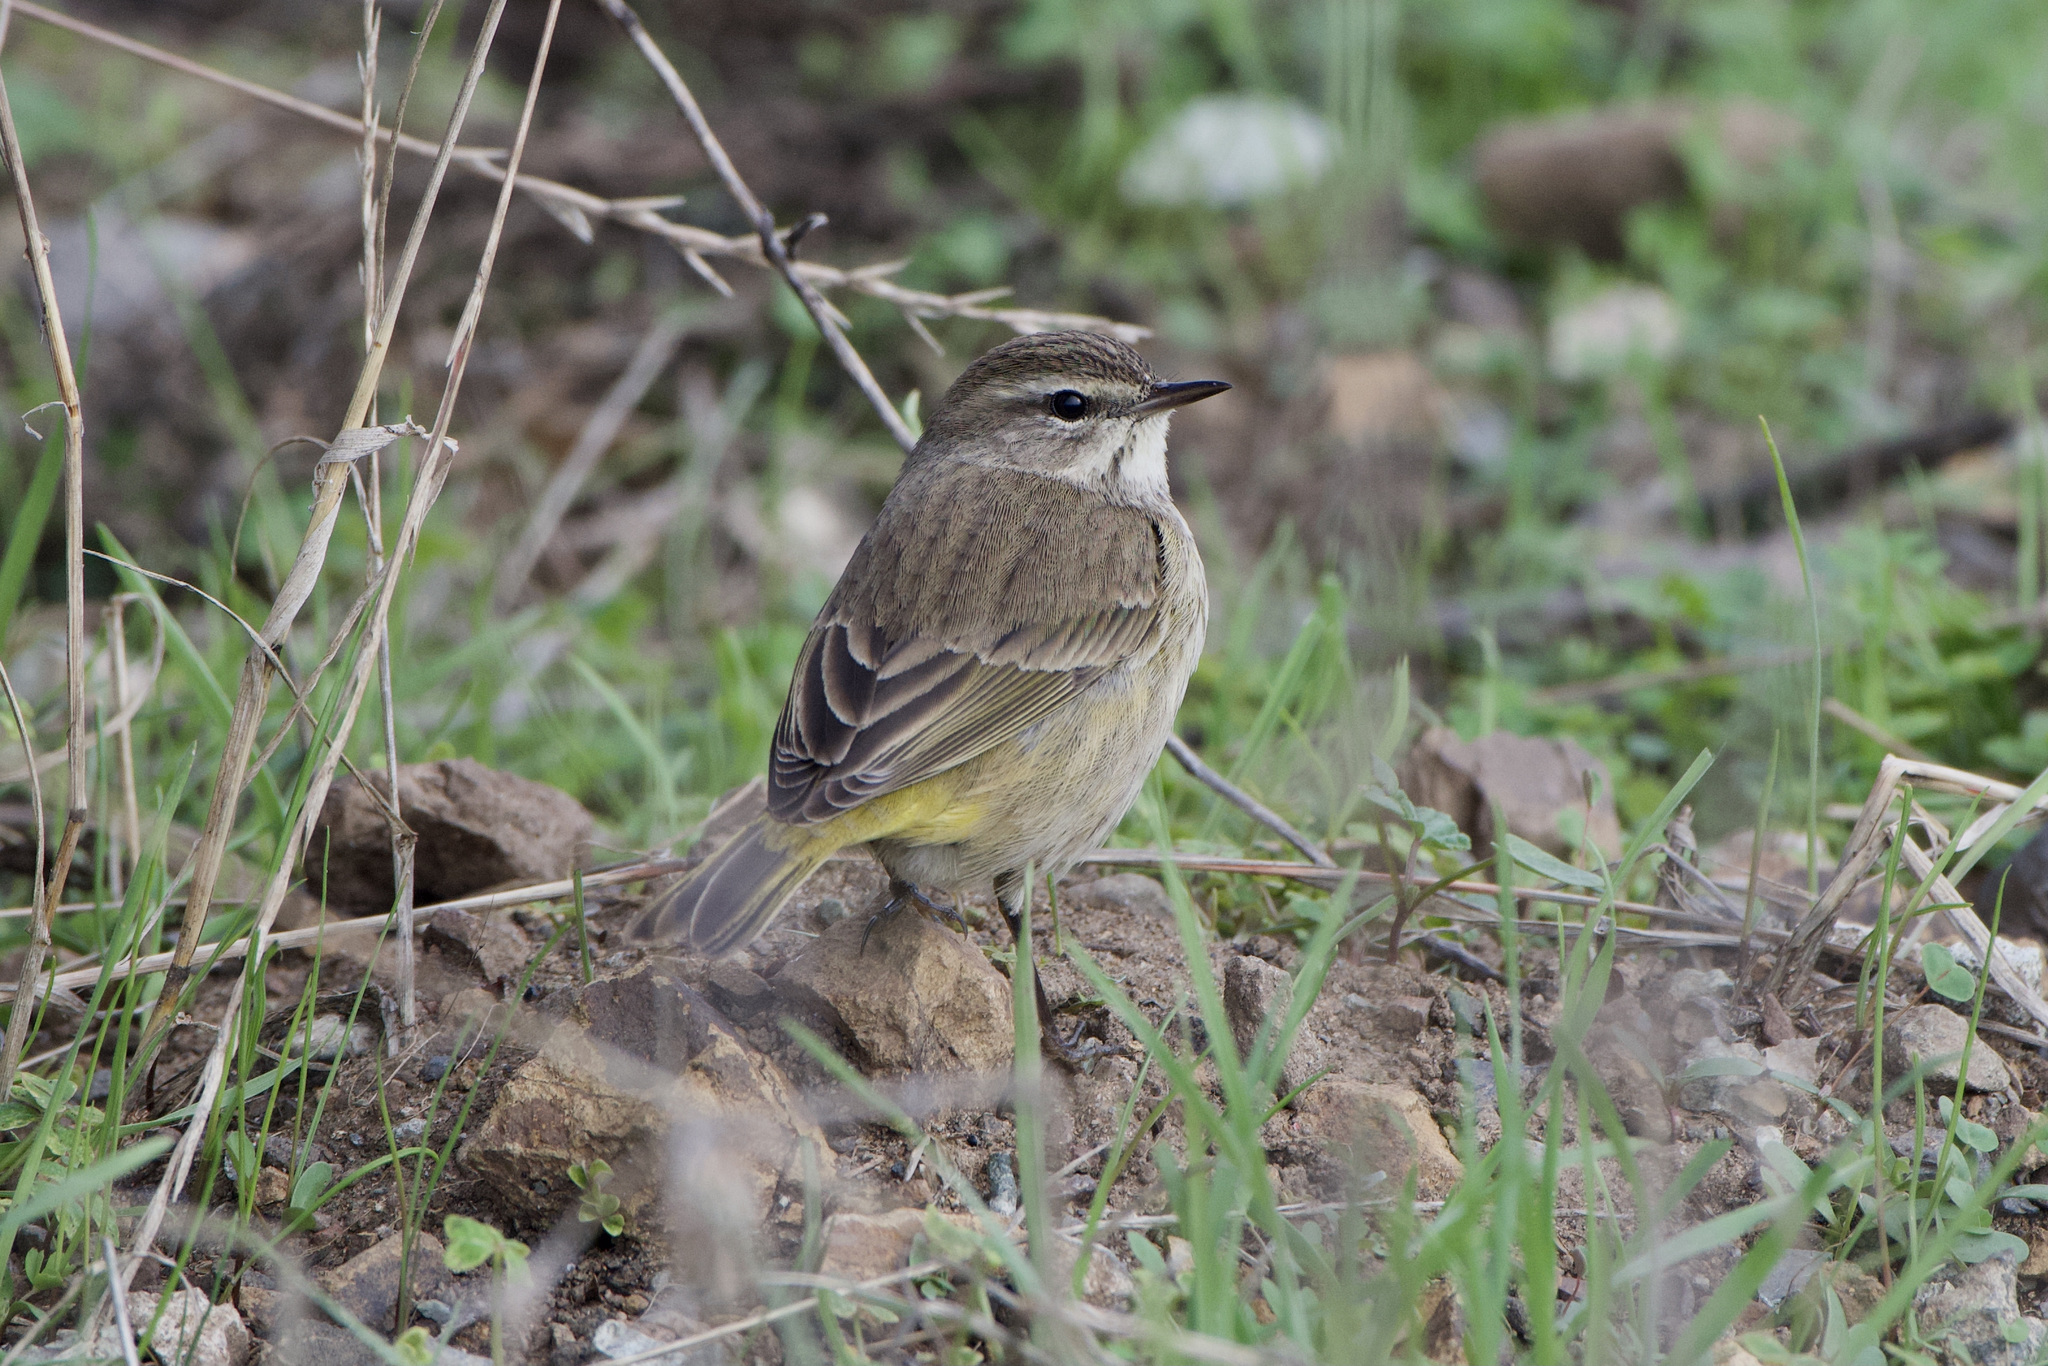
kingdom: Animalia
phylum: Chordata
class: Aves
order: Passeriformes
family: Parulidae
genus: Setophaga
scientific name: Setophaga palmarum
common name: Palm warbler
